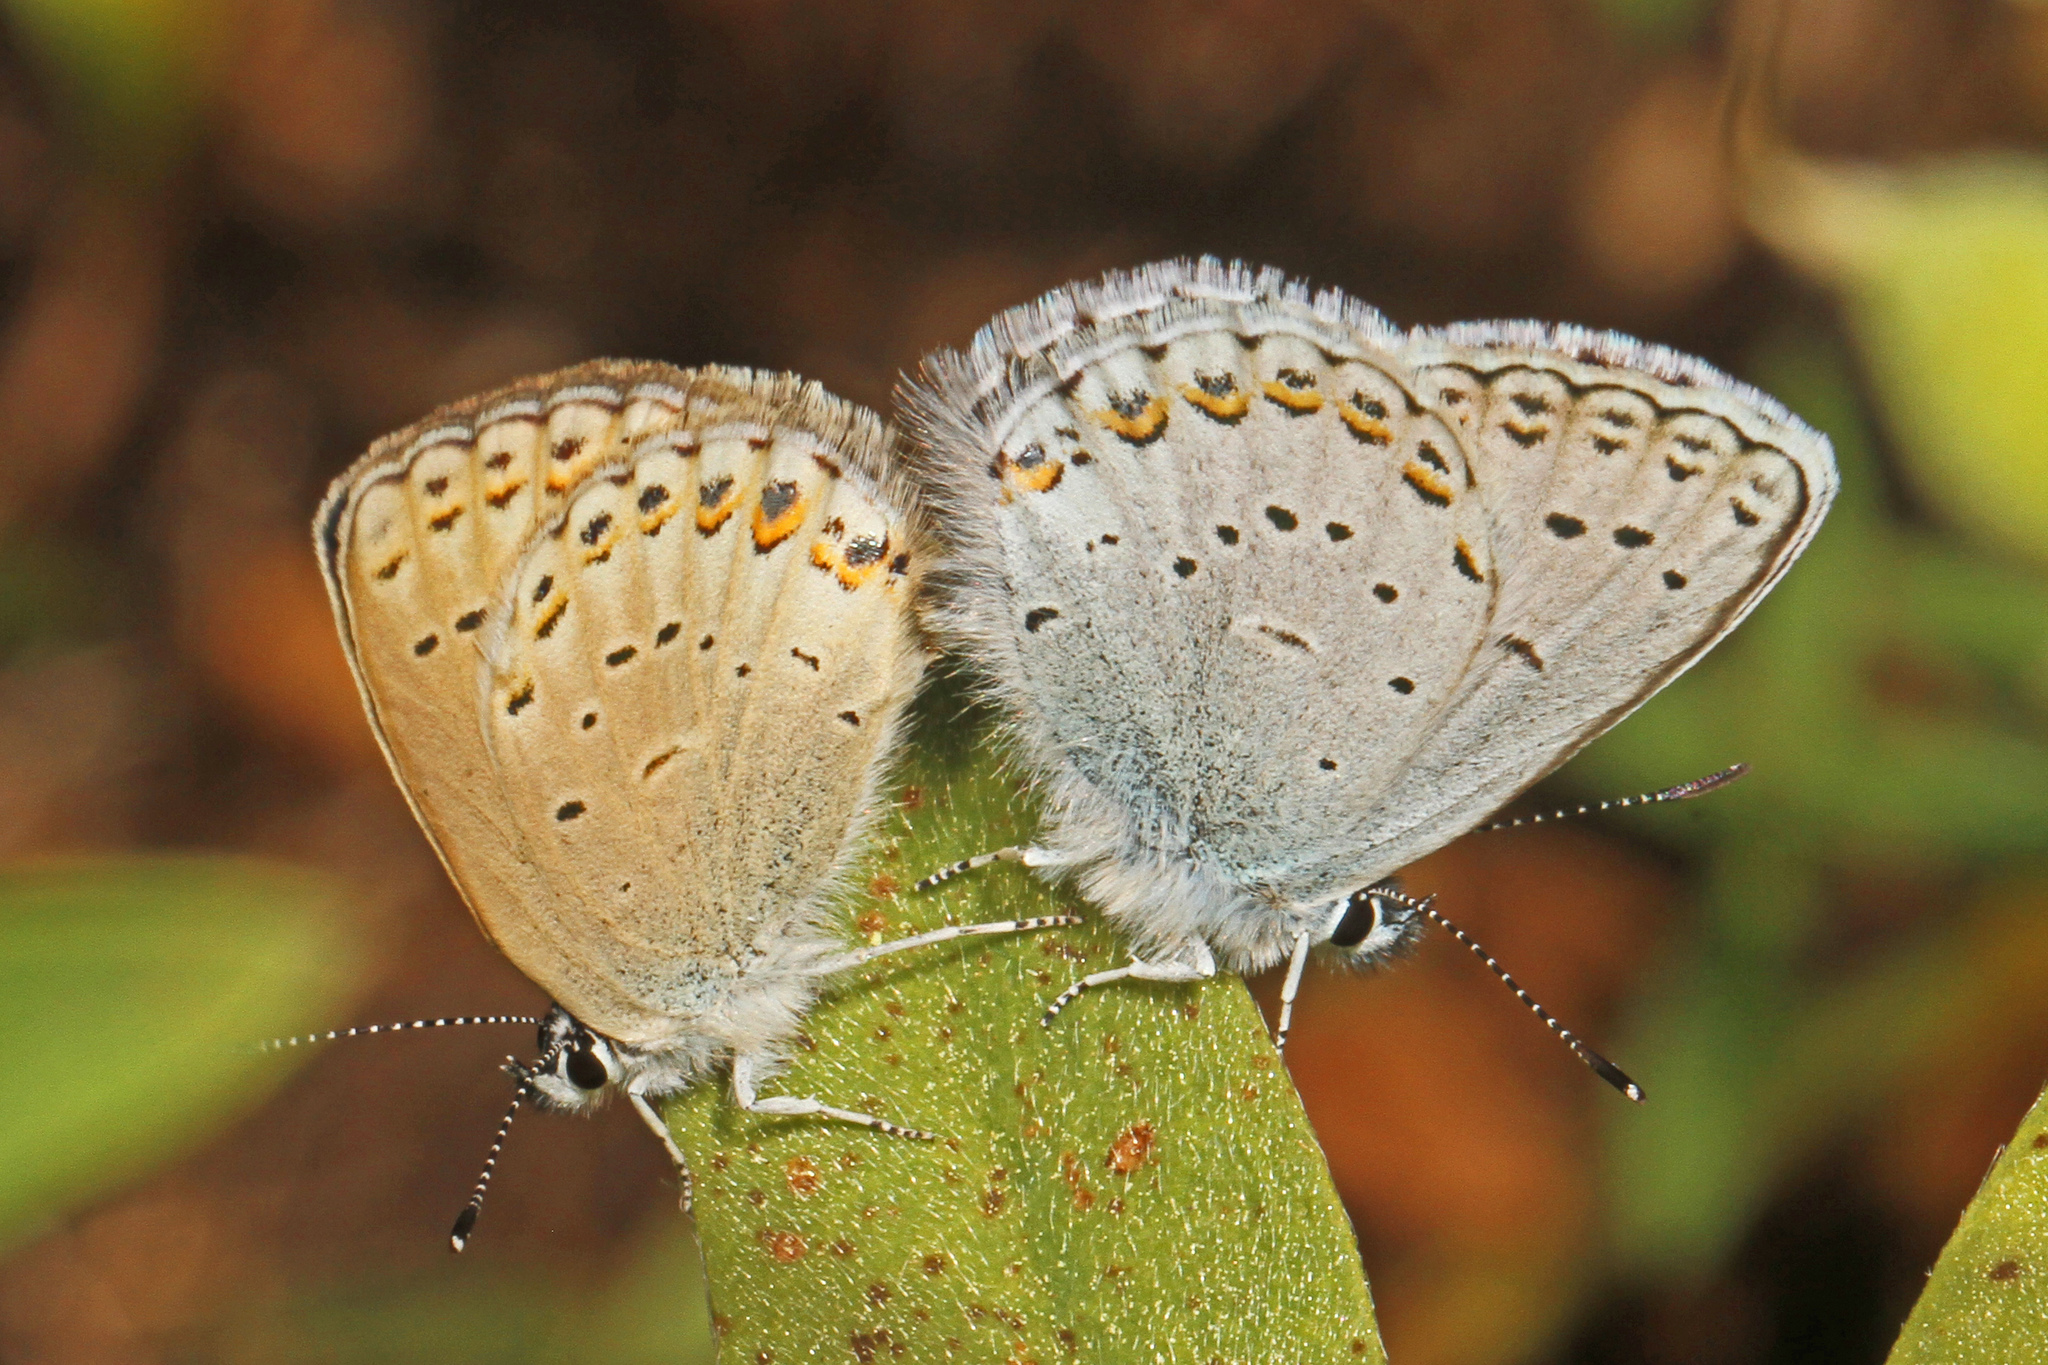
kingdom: Animalia
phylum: Arthropoda
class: Insecta
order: Lepidoptera
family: Lycaenidae
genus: Lycaeides
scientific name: Lycaeides anna
